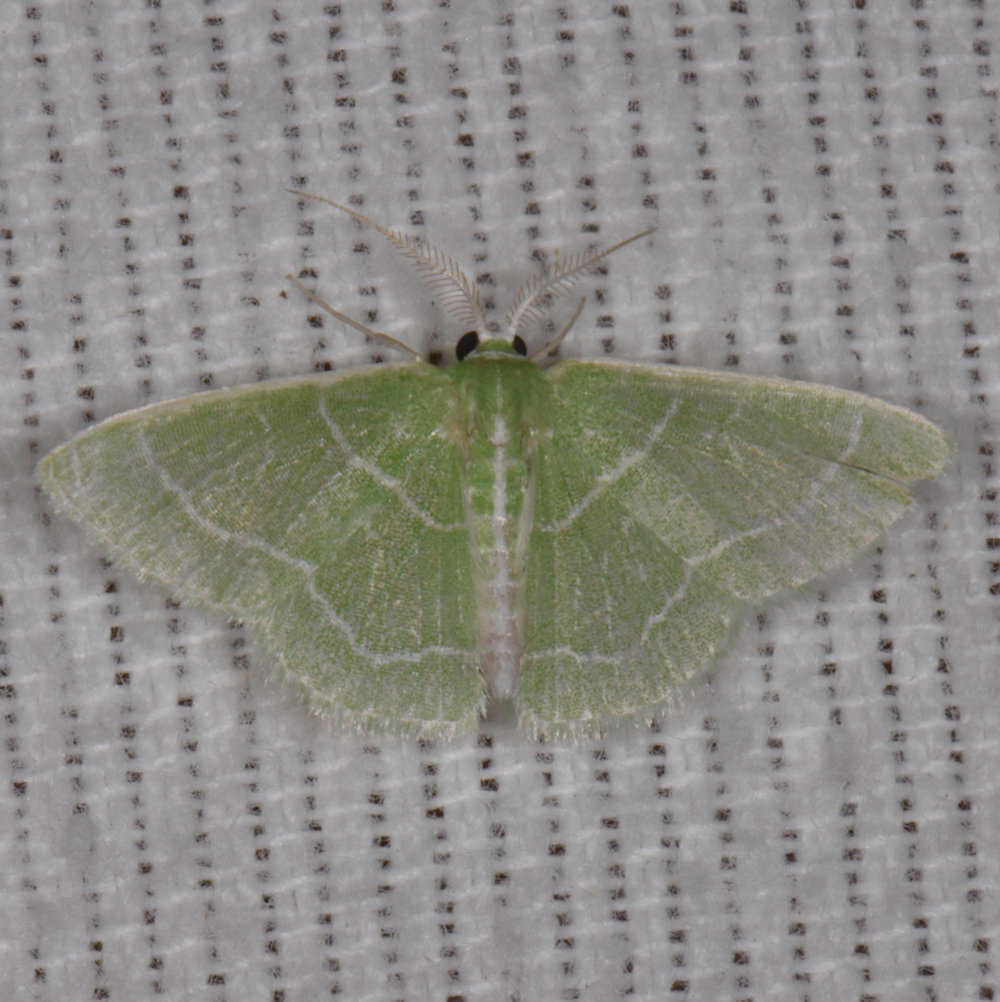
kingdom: Animalia
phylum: Arthropoda
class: Insecta
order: Lepidoptera
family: Geometridae
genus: Synchlora
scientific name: Synchlora aerata
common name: Wavy-lined emerald
